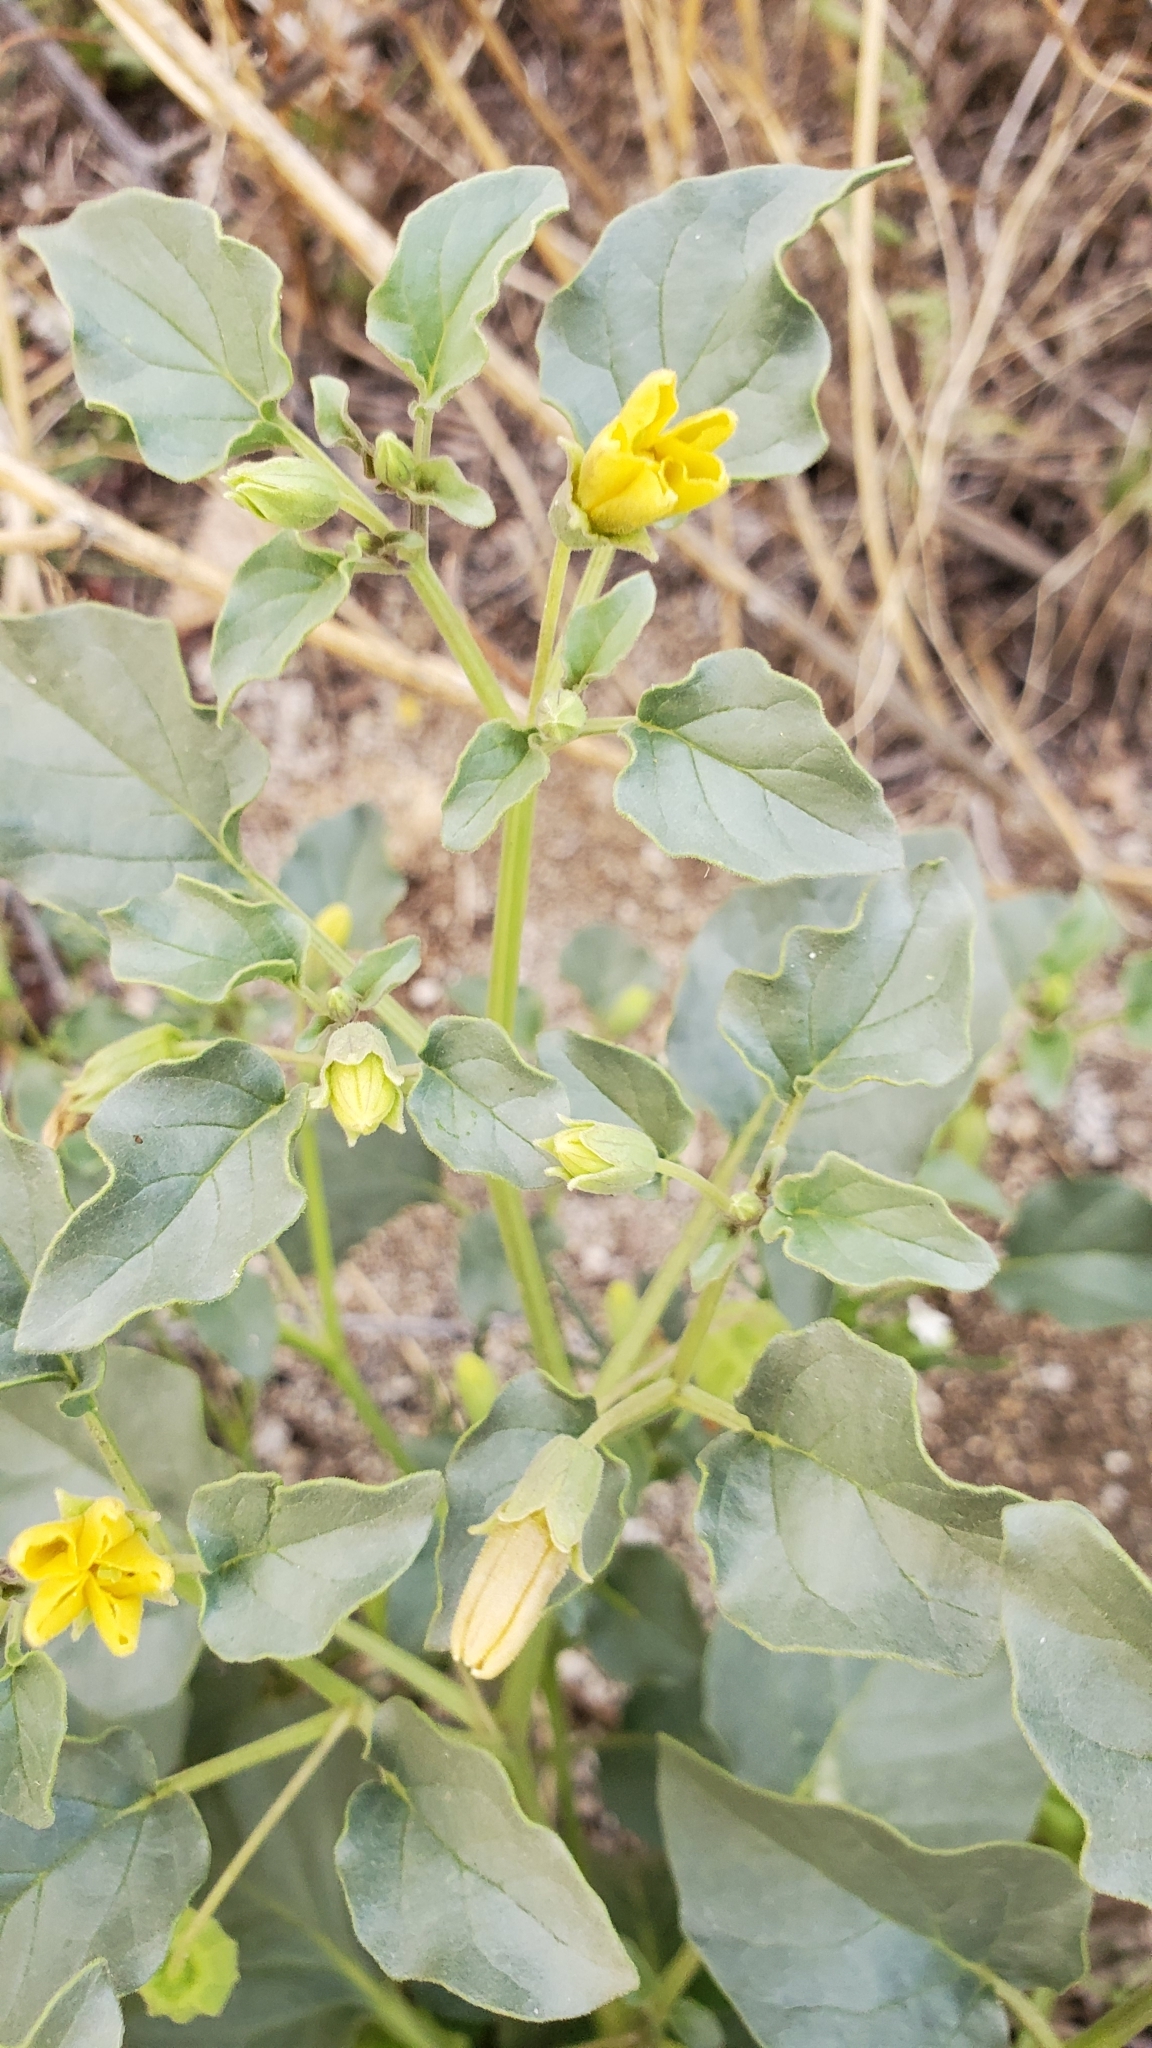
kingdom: Plantae
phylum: Tracheophyta
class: Magnoliopsida
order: Solanales
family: Solanaceae
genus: Physalis
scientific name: Physalis crassifolia
